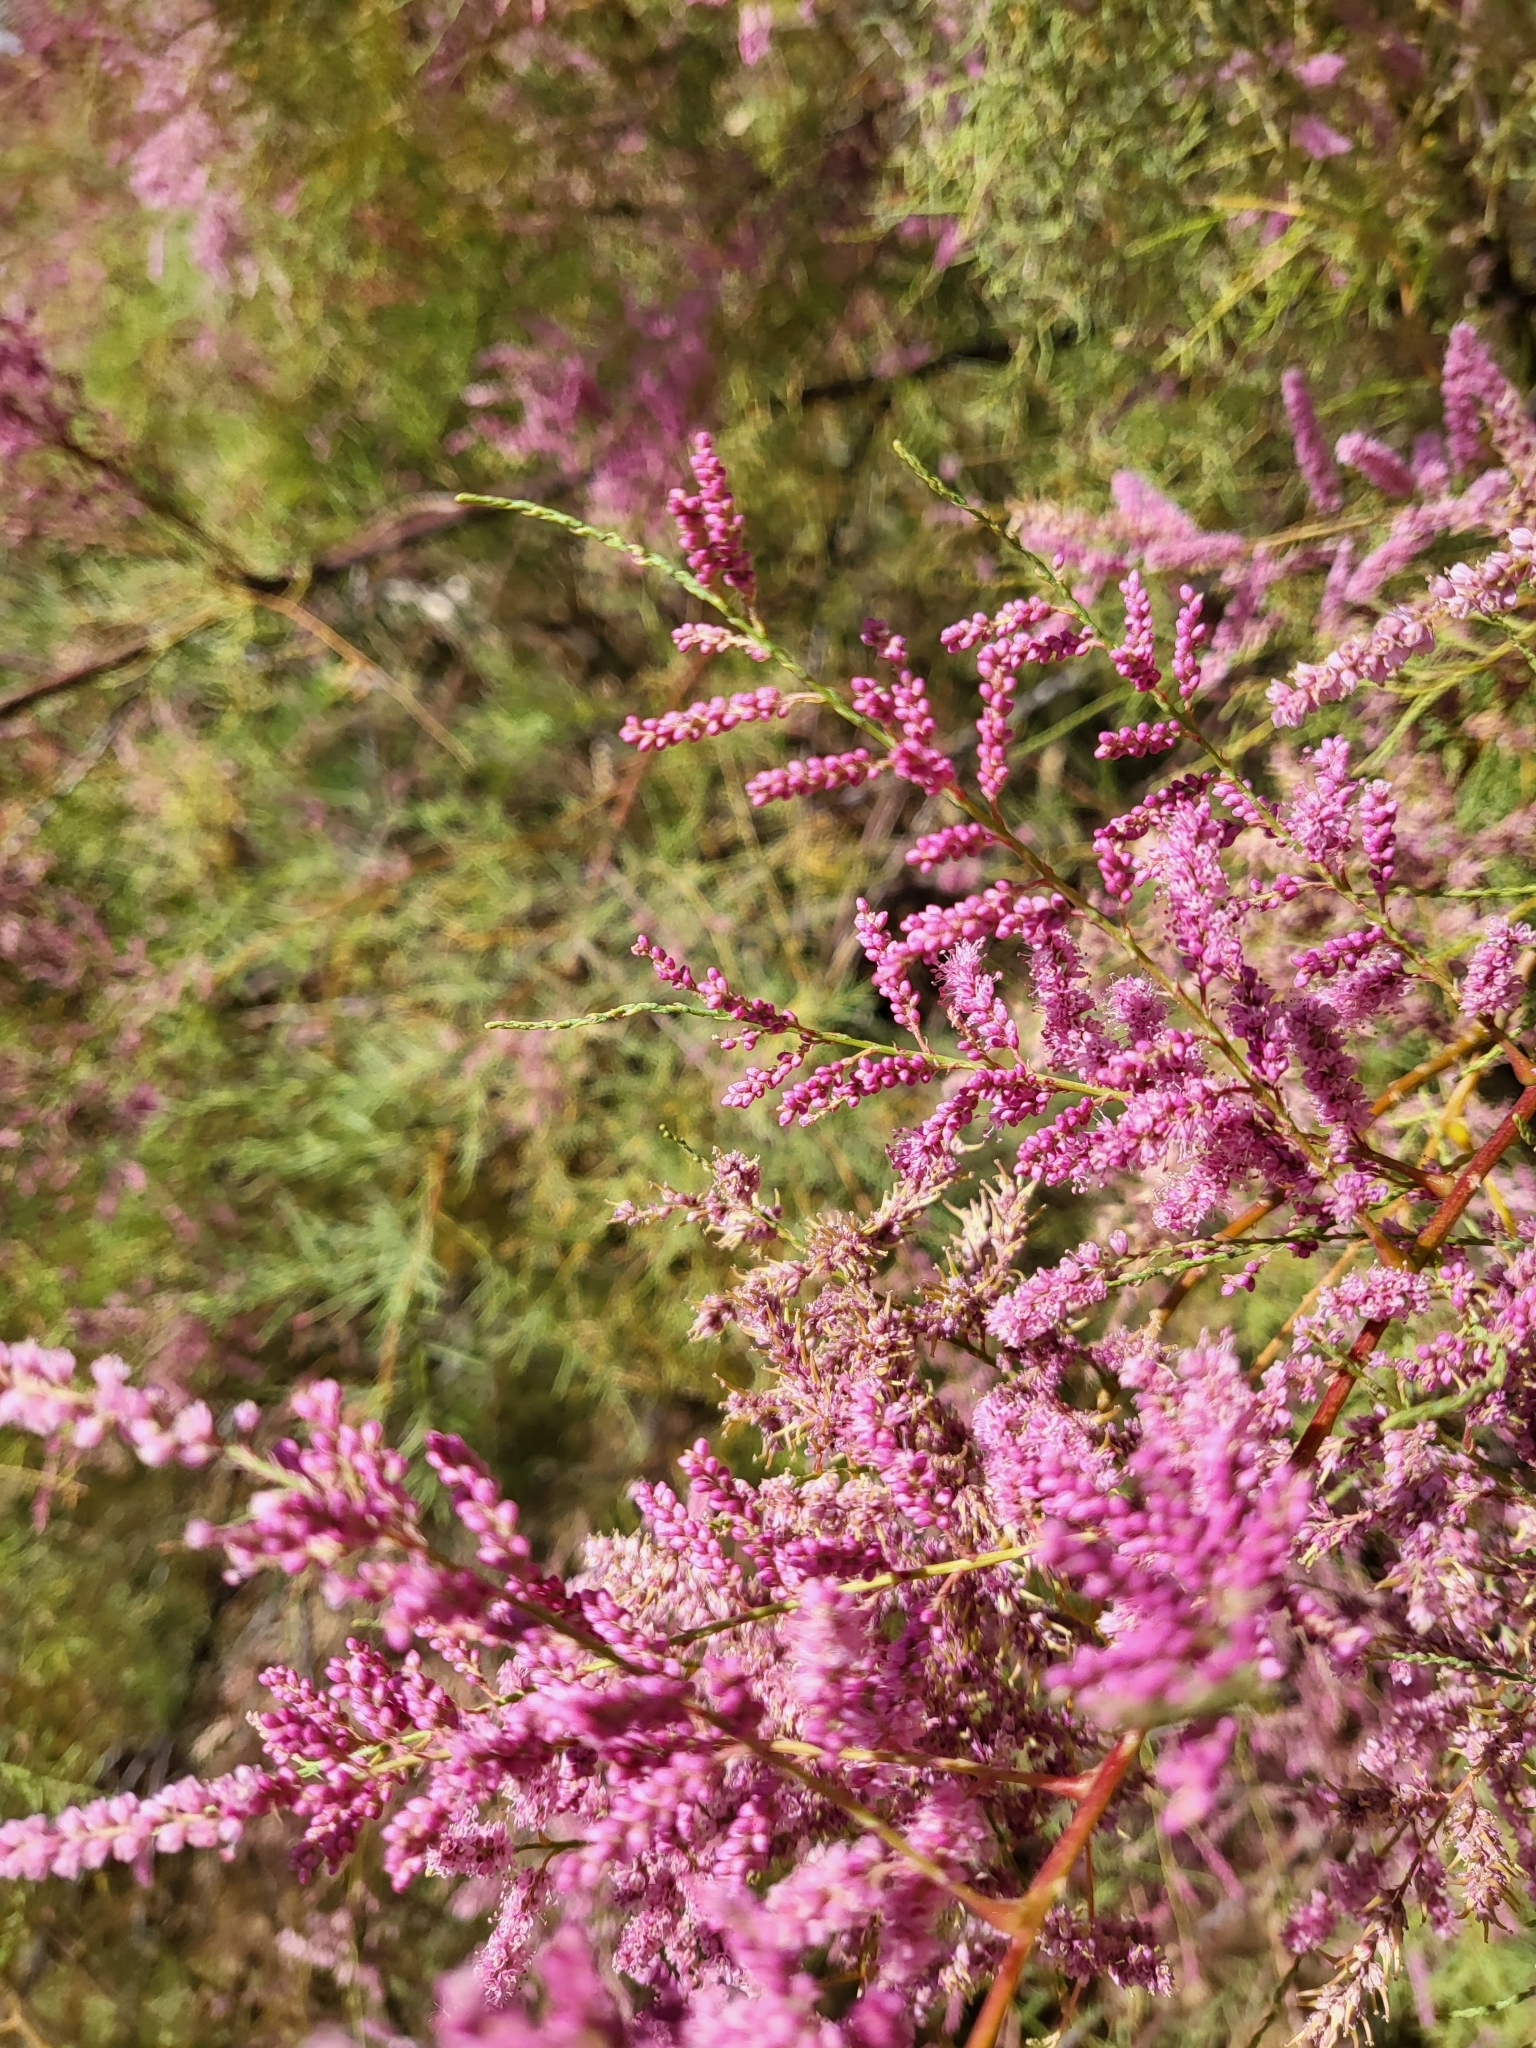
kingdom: Plantae
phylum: Tracheophyta
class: Magnoliopsida
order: Caryophyllales
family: Tamaricaceae
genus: Tamarix
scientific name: Tamarix
